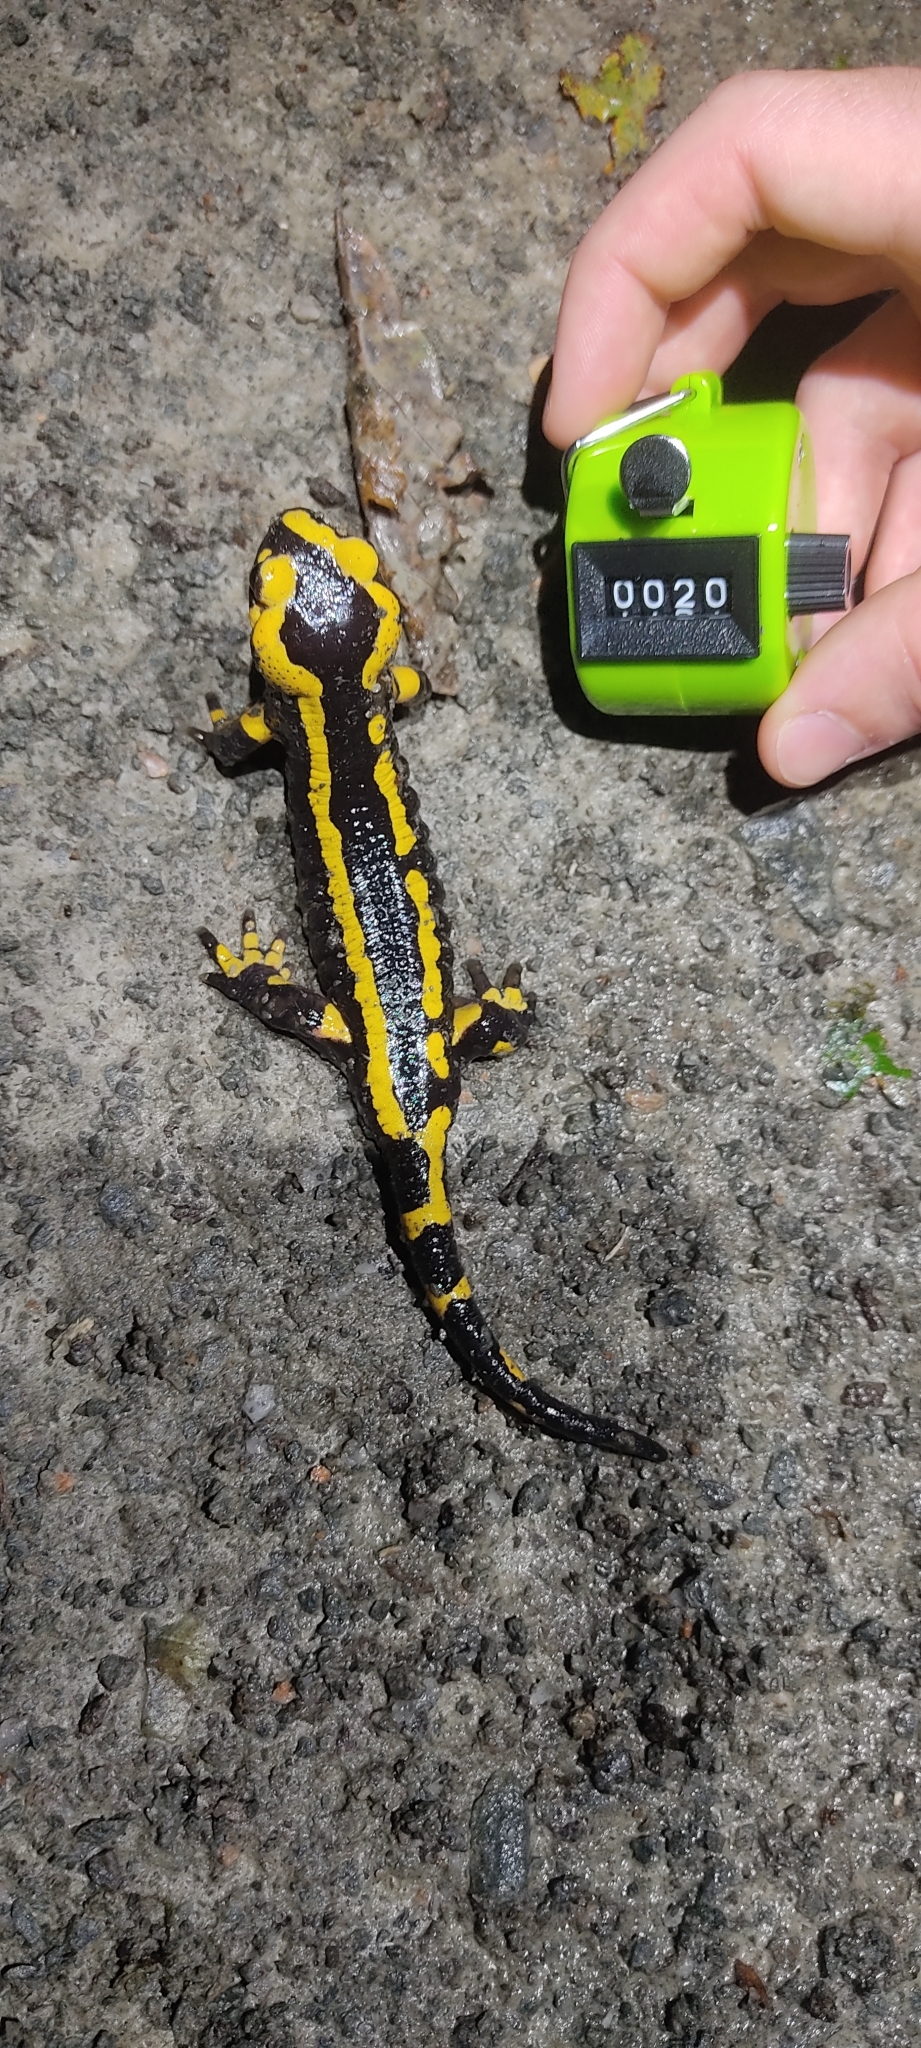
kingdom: Animalia
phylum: Chordata
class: Amphibia
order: Caudata
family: Salamandridae
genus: Salamandra
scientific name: Salamandra salamandra
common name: Fire salamander
